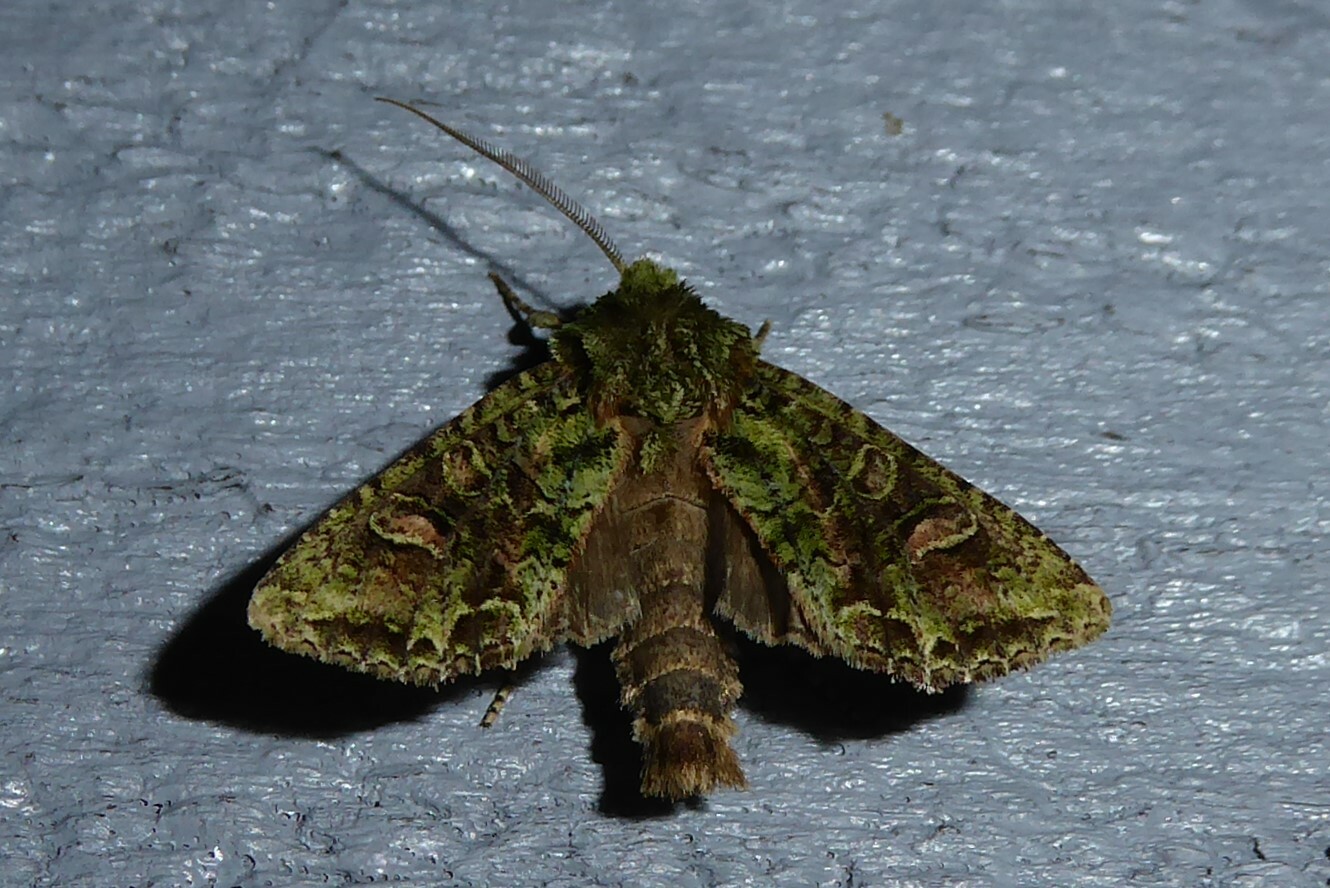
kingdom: Animalia
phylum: Arthropoda
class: Insecta
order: Lepidoptera
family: Noctuidae
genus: Ichneutica
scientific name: Ichneutica
